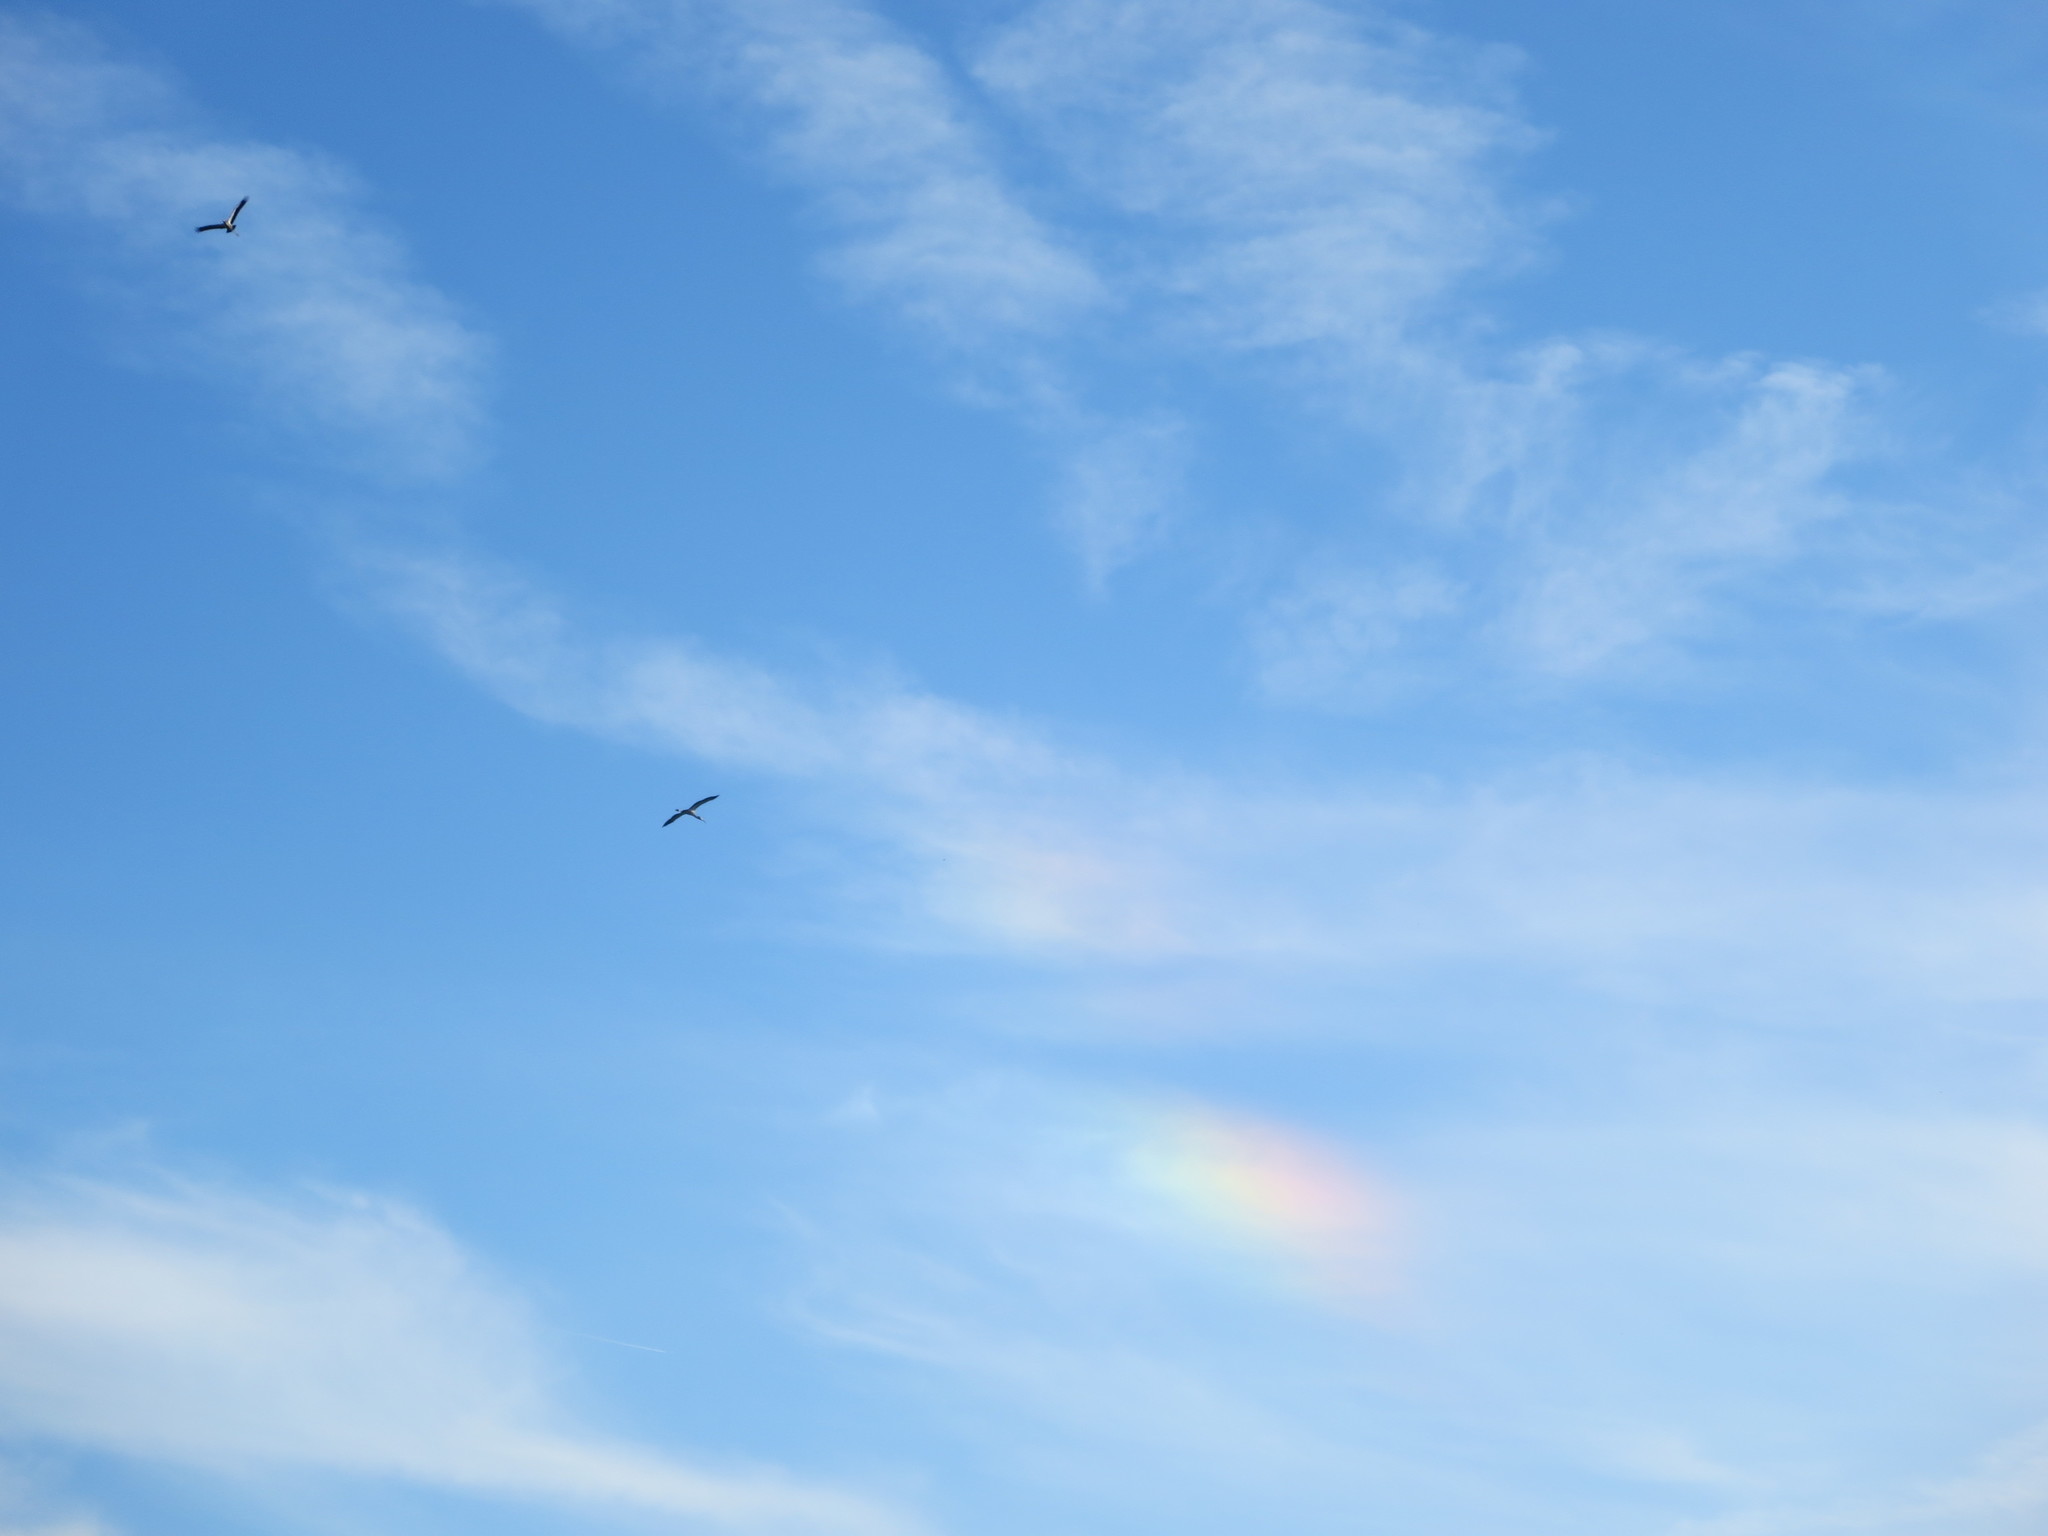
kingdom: Animalia
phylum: Chordata
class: Aves
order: Ciconiiformes
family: Ciconiidae
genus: Mycteria
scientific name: Mycteria americana
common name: Wood stork
